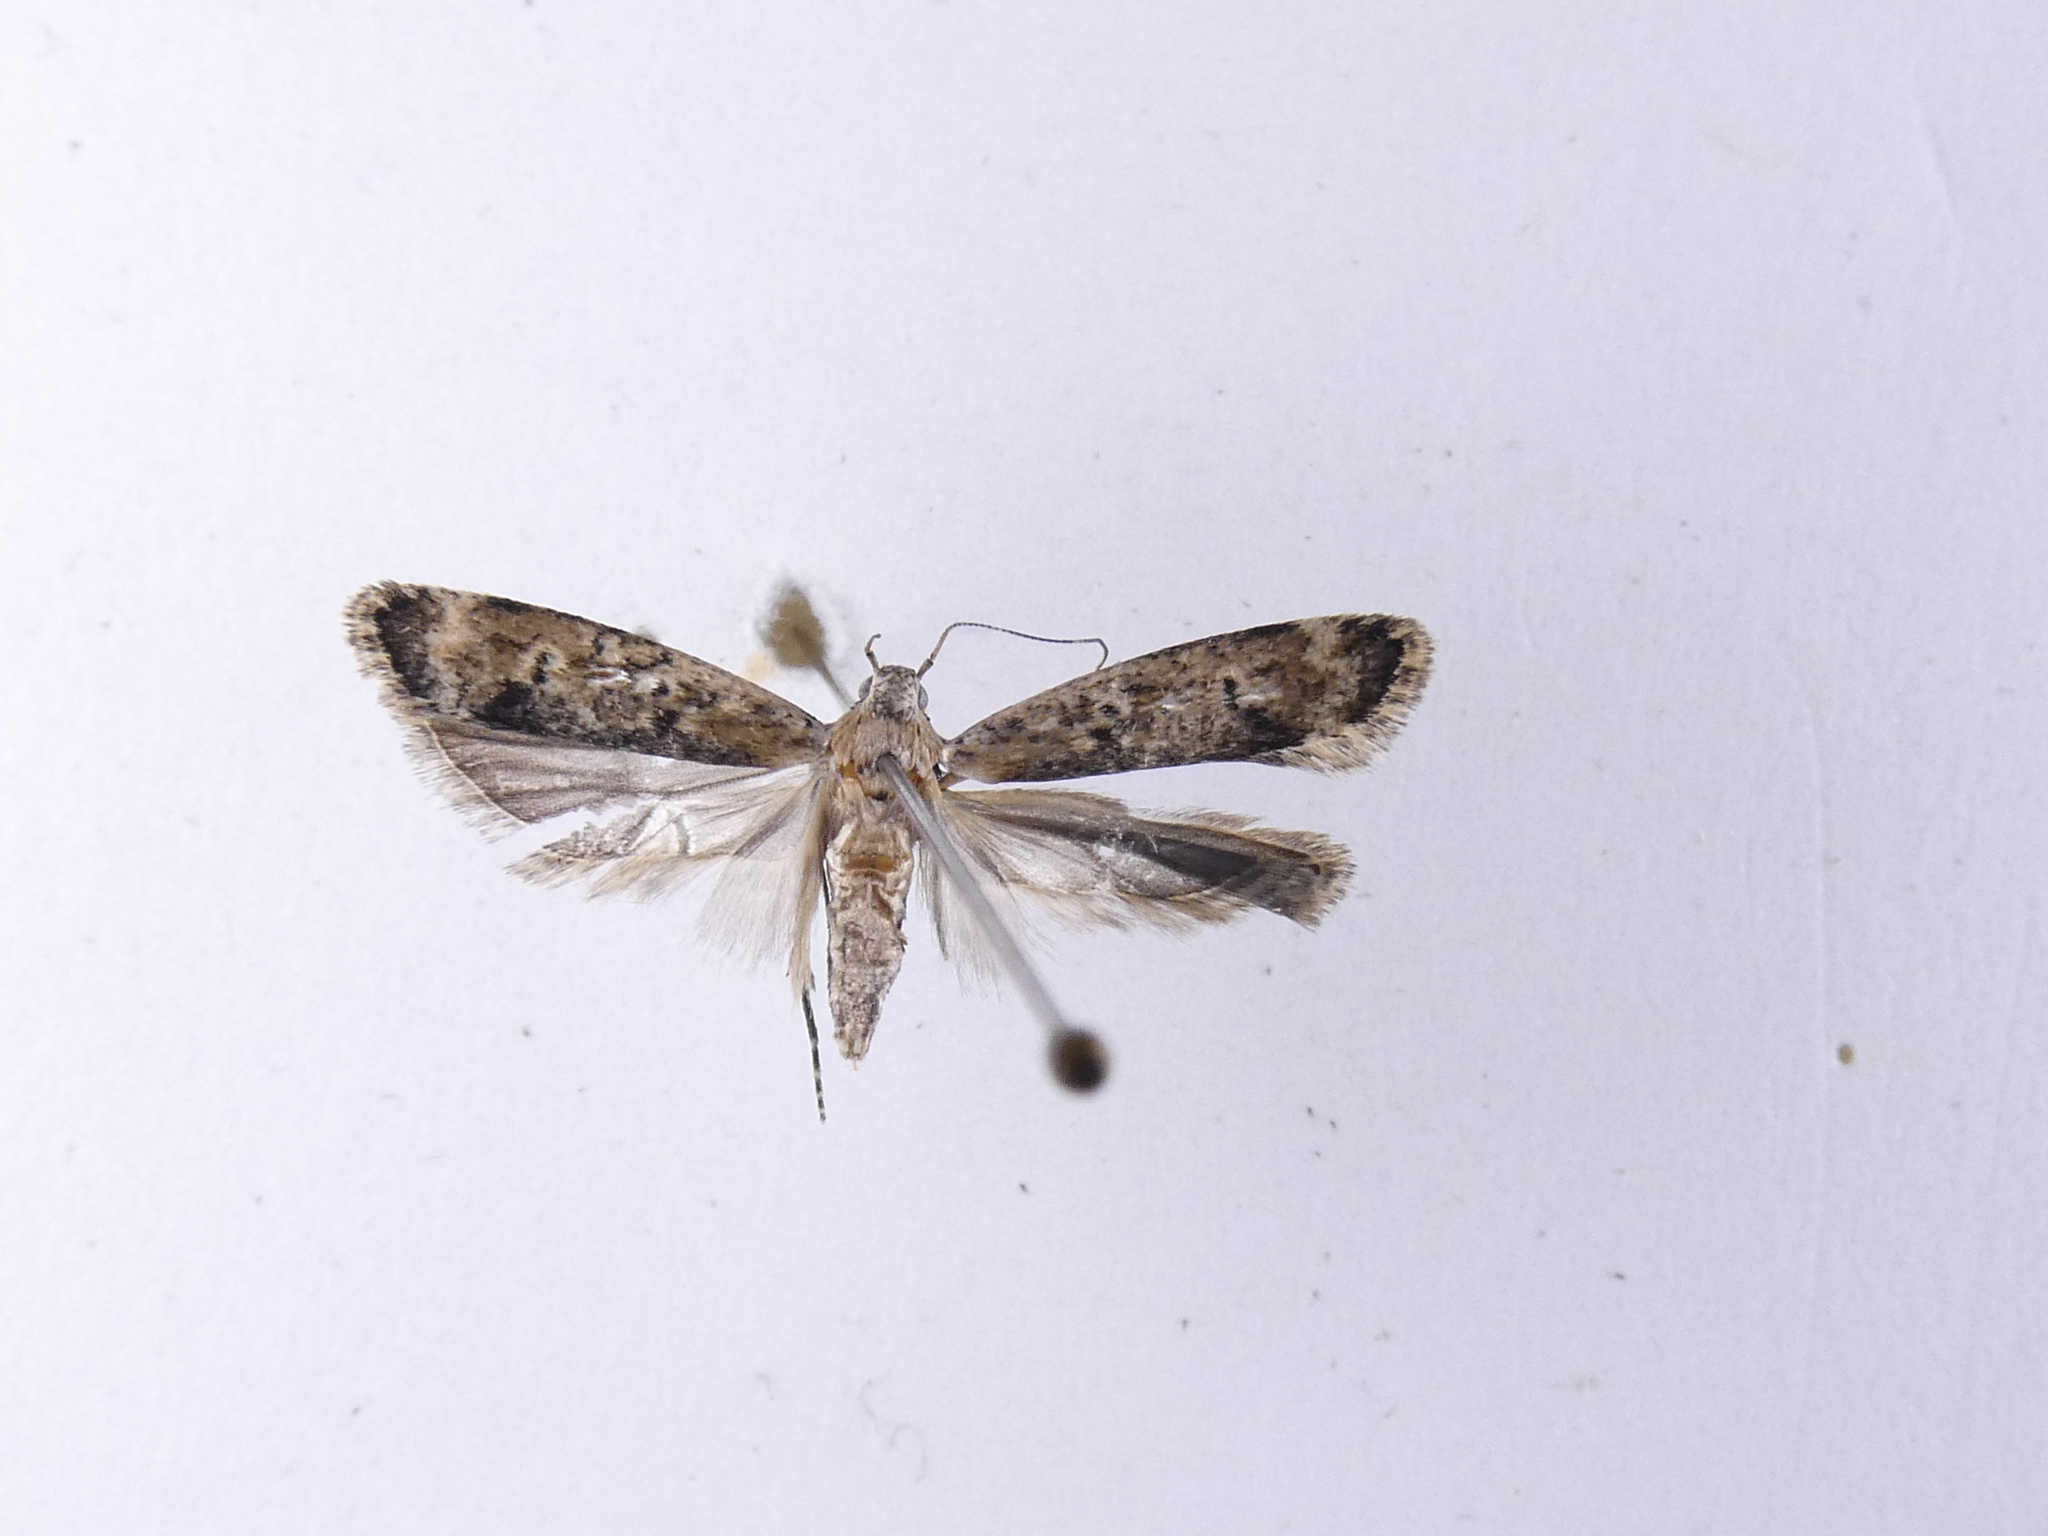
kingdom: Animalia
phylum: Arthropoda
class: Insecta
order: Lepidoptera
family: Gelechiidae
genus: Anisoplaca
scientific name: Anisoplaca achyrota
